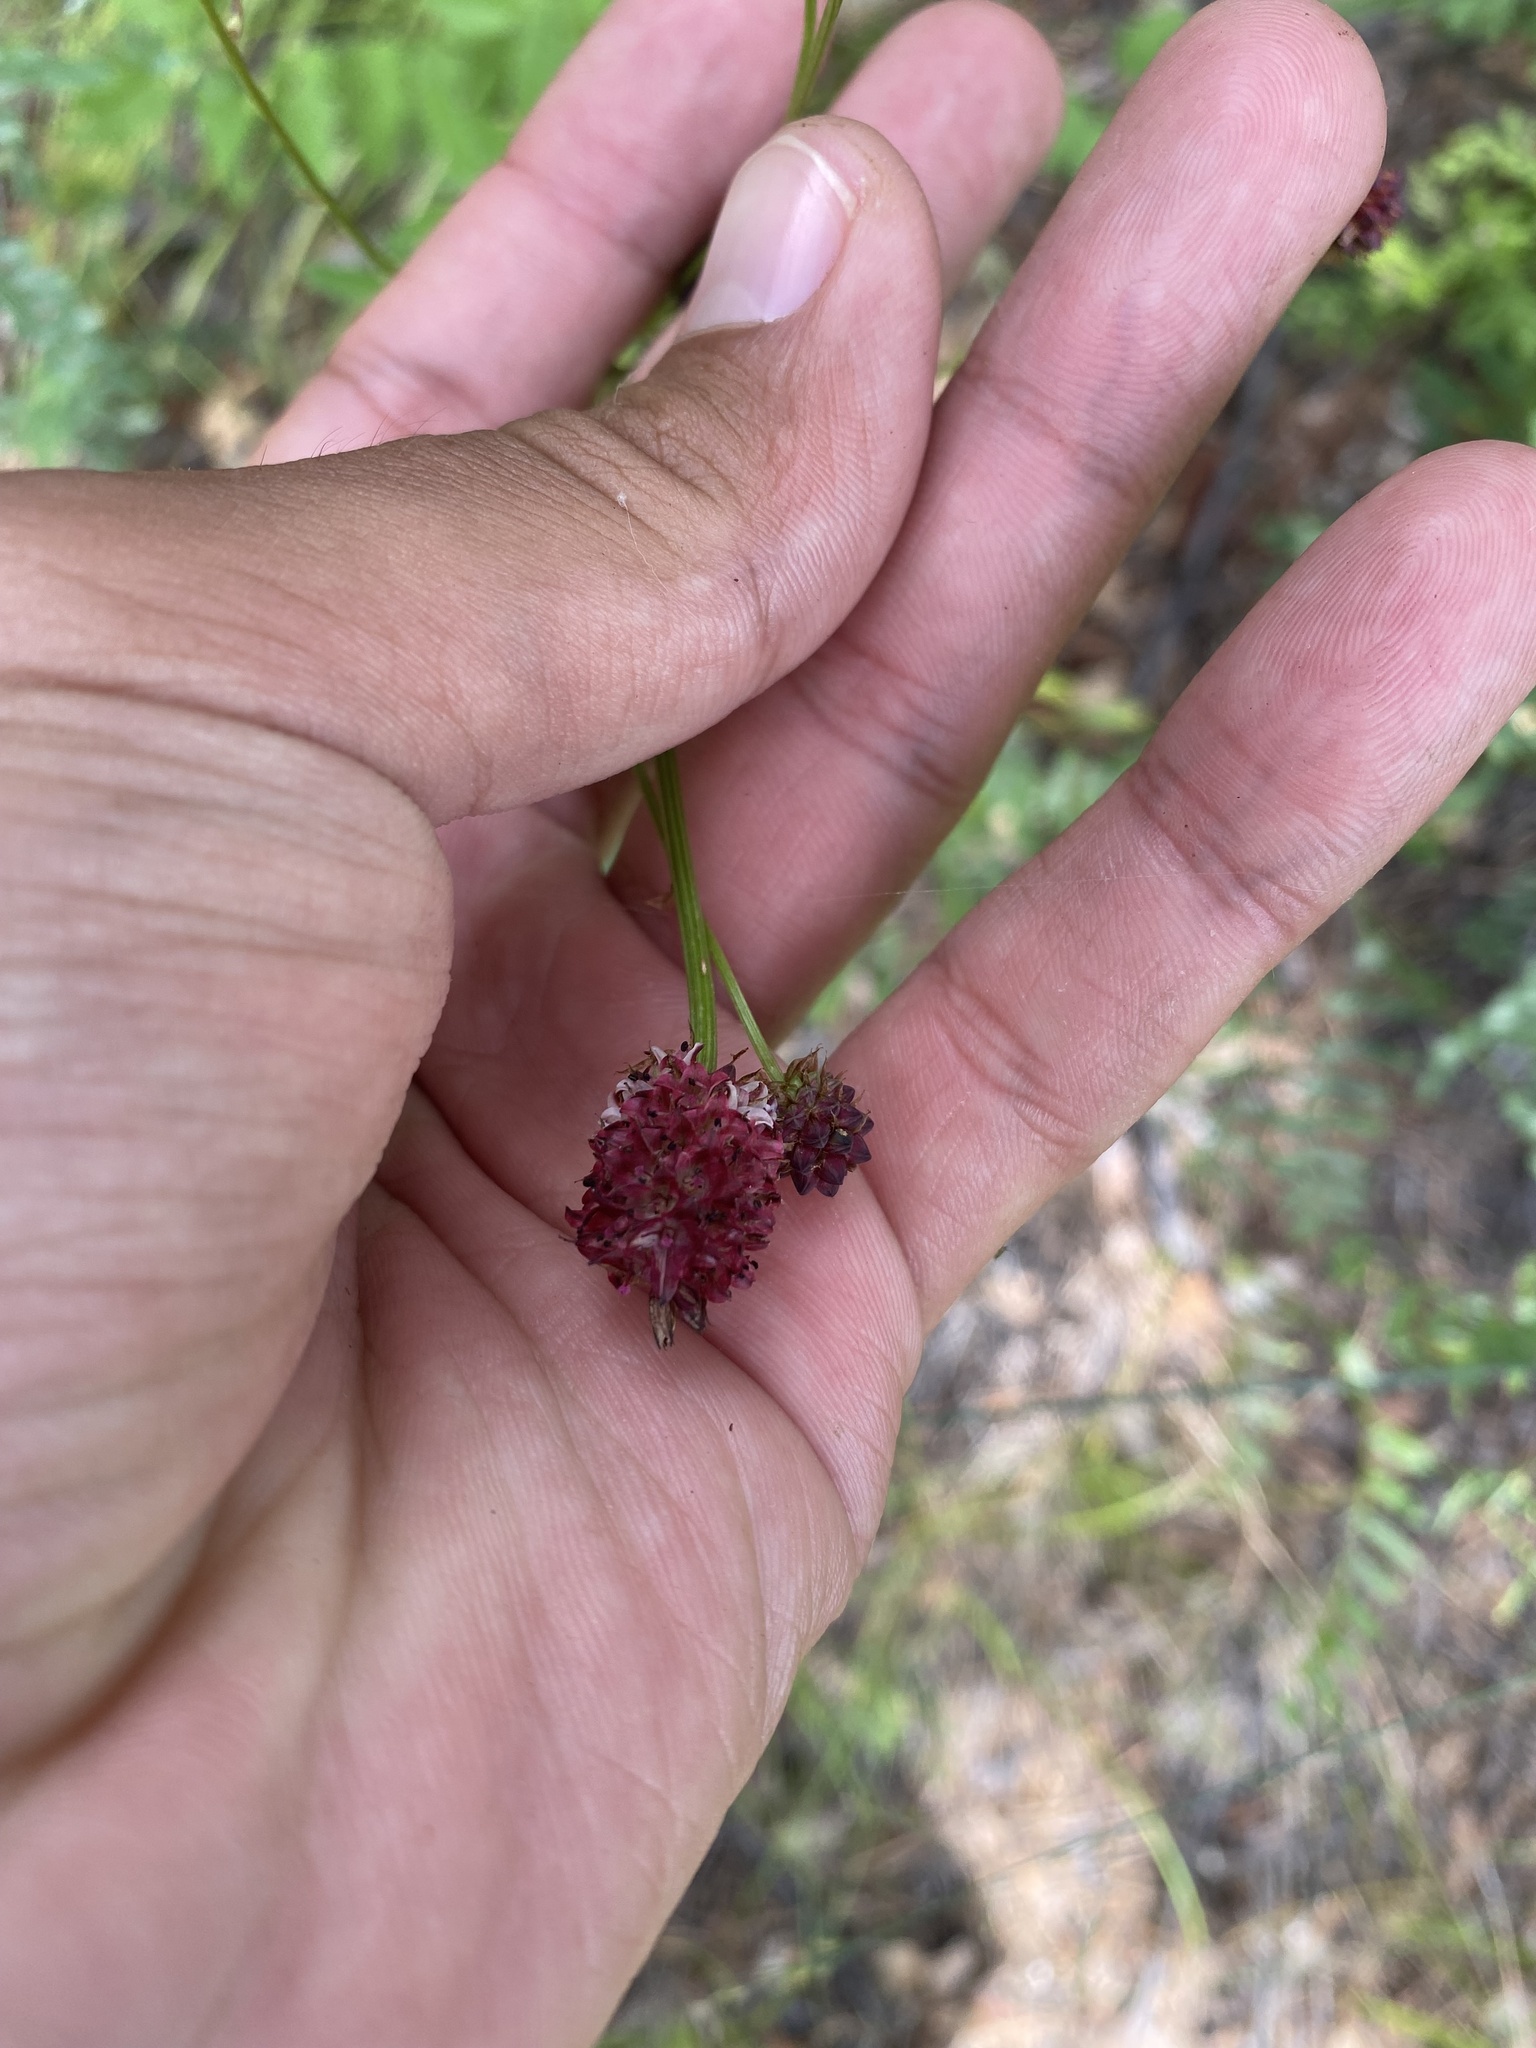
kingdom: Plantae
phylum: Tracheophyta
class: Magnoliopsida
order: Rosales
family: Rosaceae
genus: Sanguisorba
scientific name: Sanguisorba officinalis
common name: Great burnet
